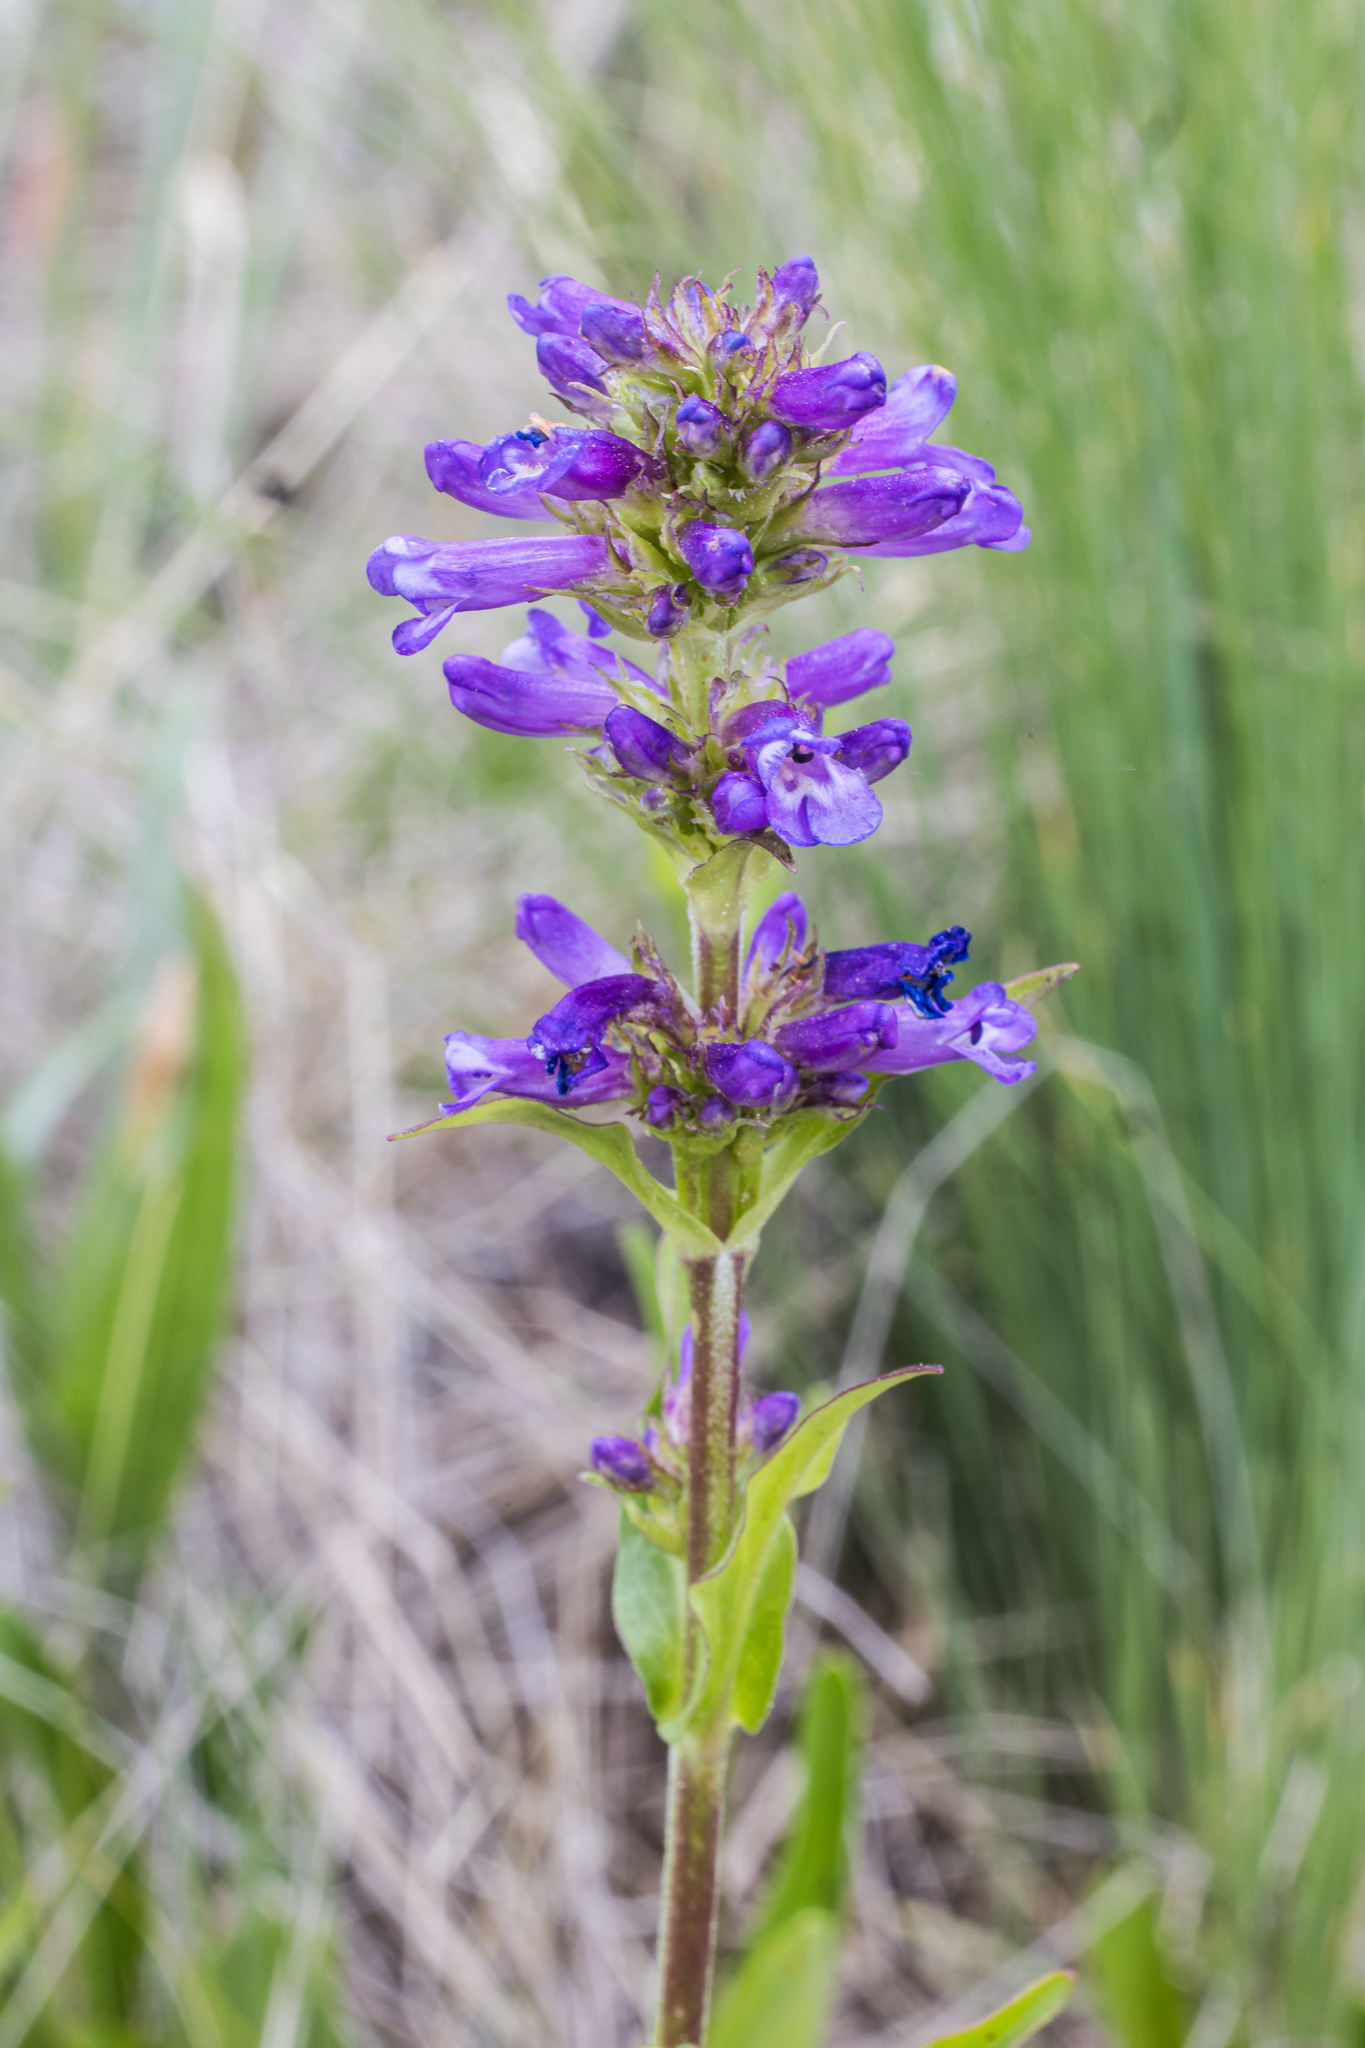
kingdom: Plantae
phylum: Tracheophyta
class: Magnoliopsida
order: Lamiales
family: Plantaginaceae
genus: Penstemon
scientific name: Penstemon rydbergii
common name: Rydberg's beardtongue
